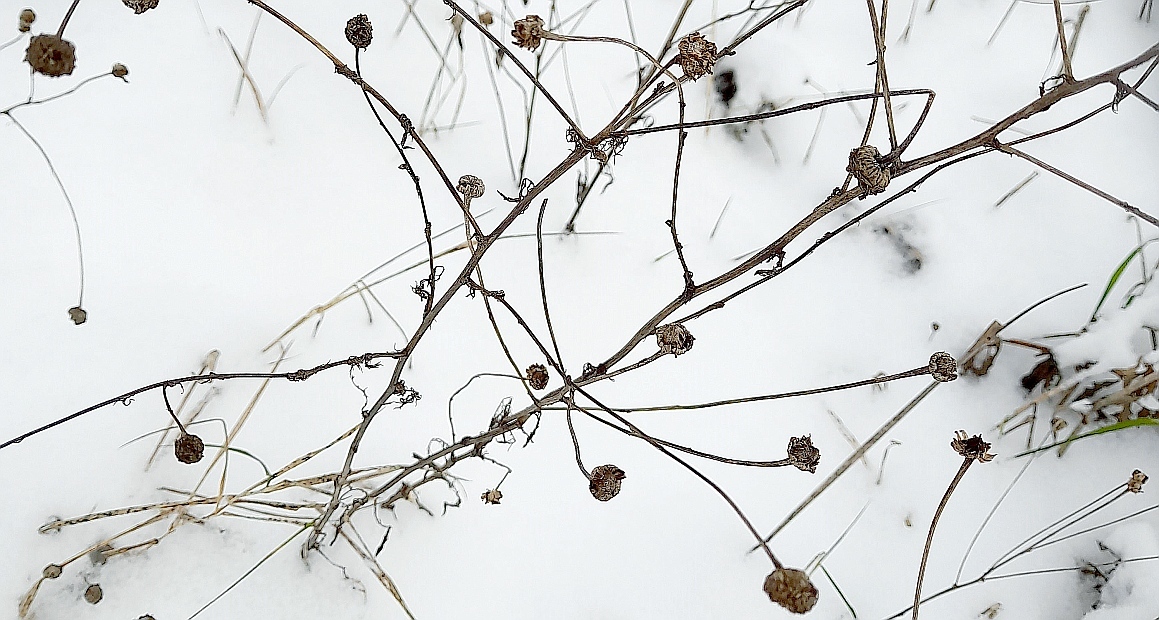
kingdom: Plantae
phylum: Tracheophyta
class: Magnoliopsida
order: Asterales
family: Asteraceae
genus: Tripleurospermum
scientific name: Tripleurospermum inodorum
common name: Scentless mayweed
